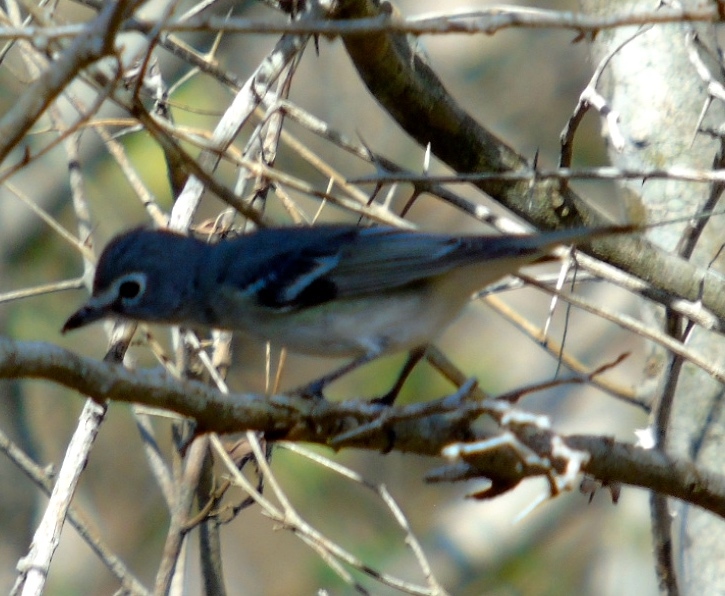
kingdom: Animalia
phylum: Chordata
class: Aves
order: Passeriformes
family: Vireonidae
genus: Vireo
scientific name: Vireo plumbeus
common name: Plumbeous vireo
